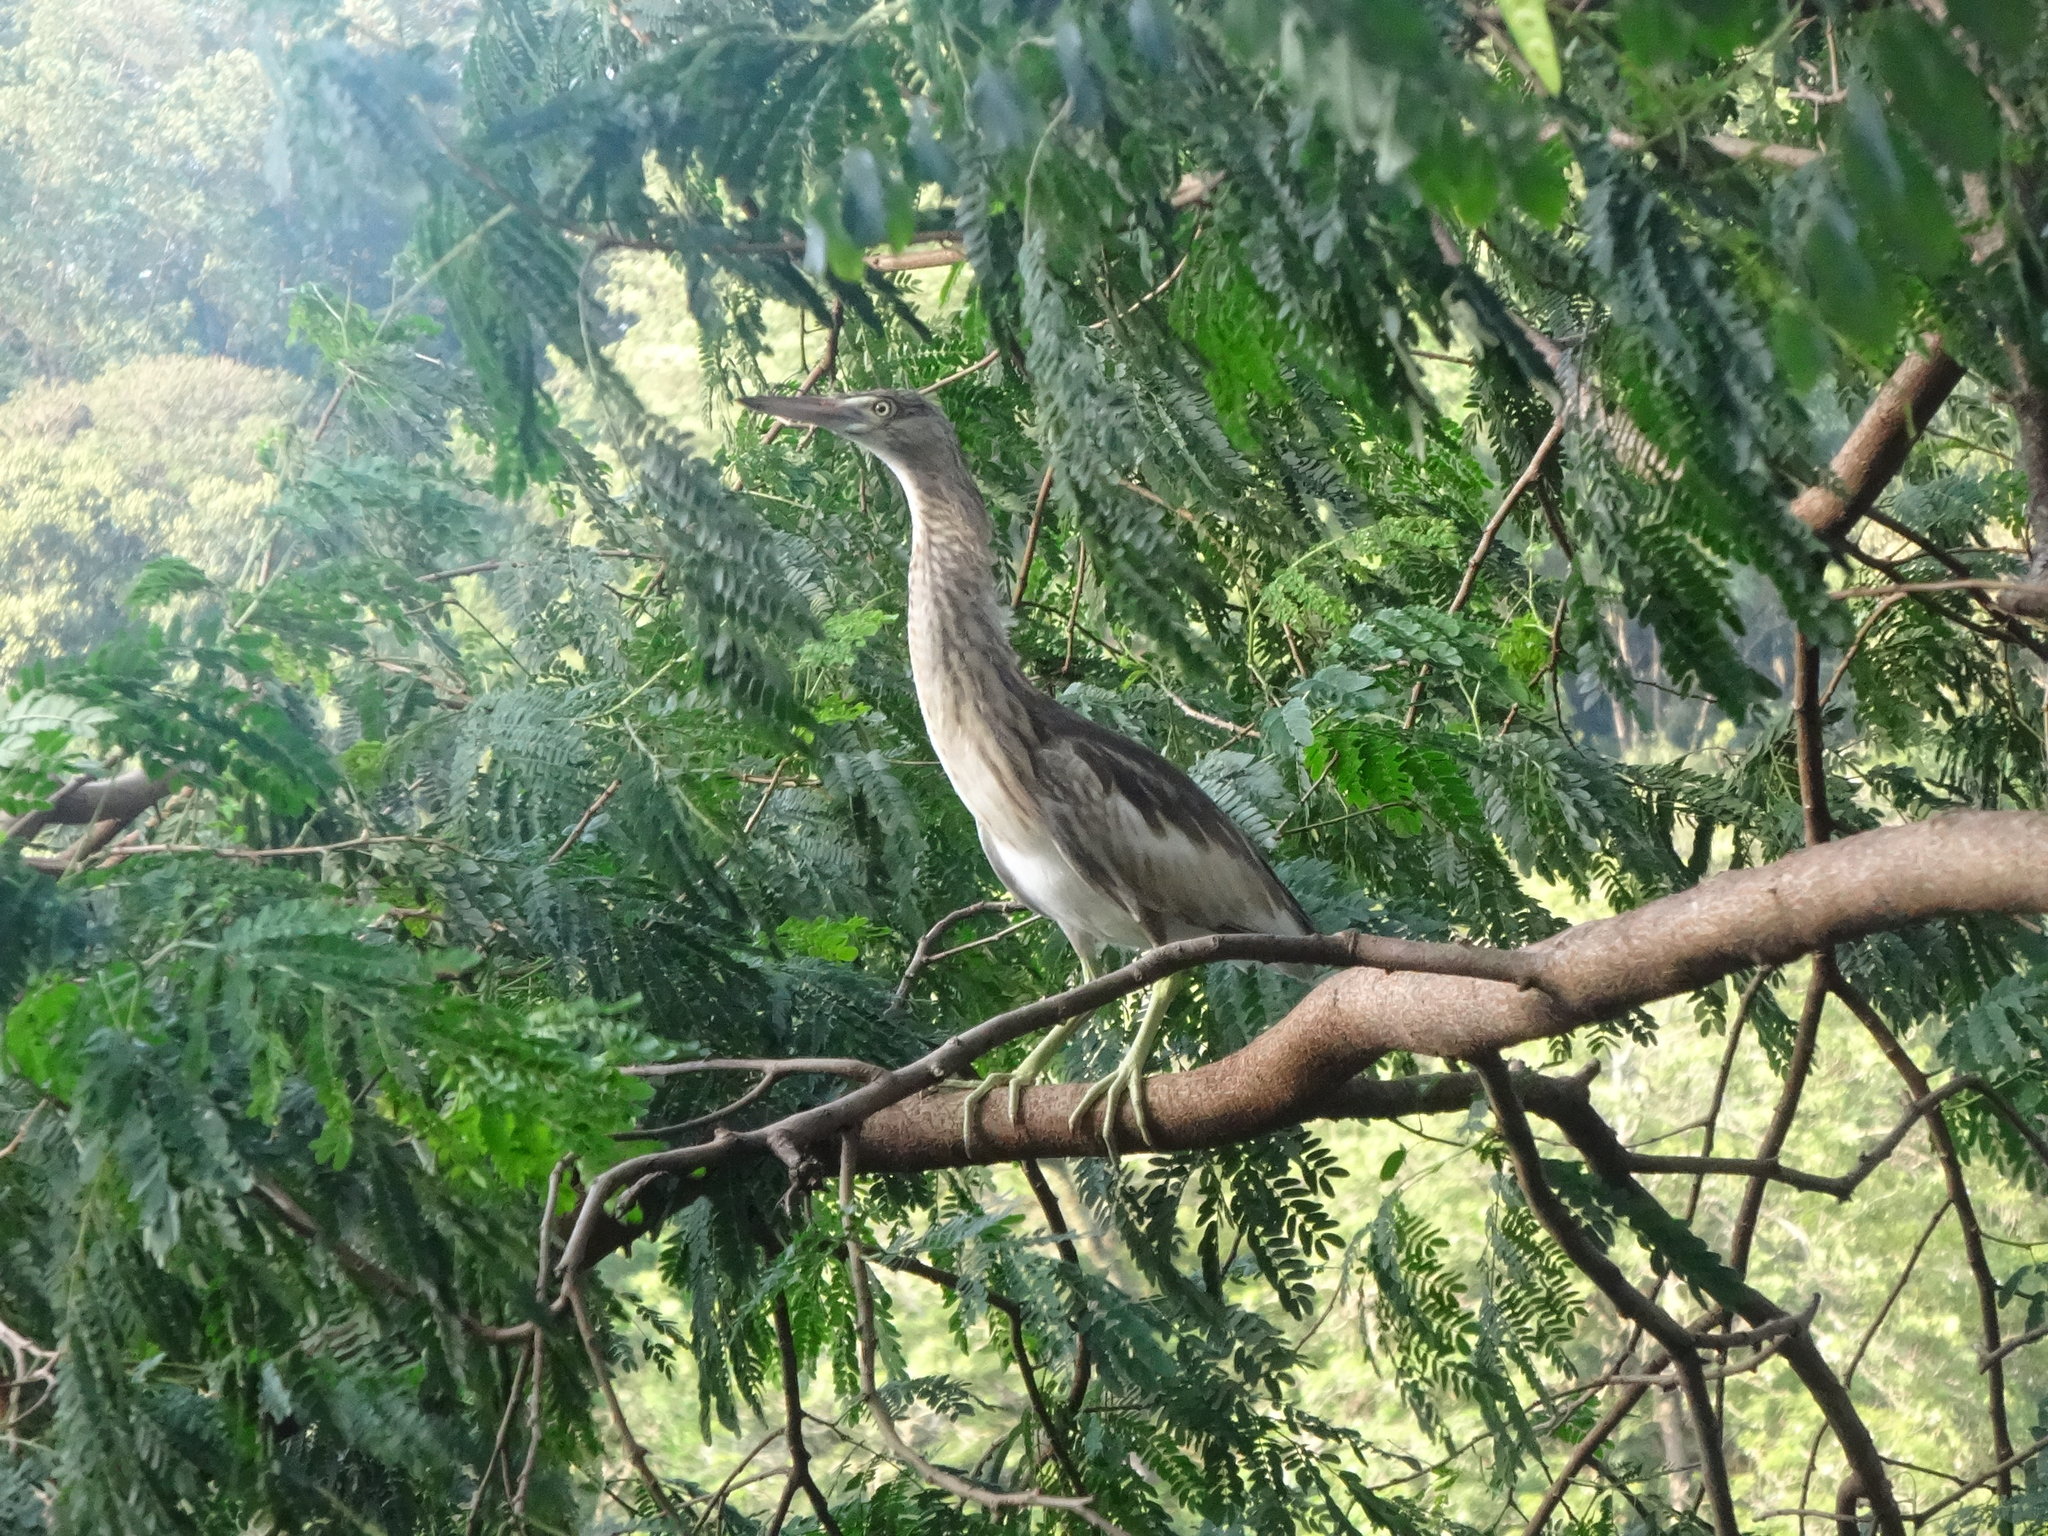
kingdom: Animalia
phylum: Chordata
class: Aves
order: Pelecaniformes
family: Ardeidae
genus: Ardeola
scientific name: Ardeola grayii
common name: Indian pond heron
